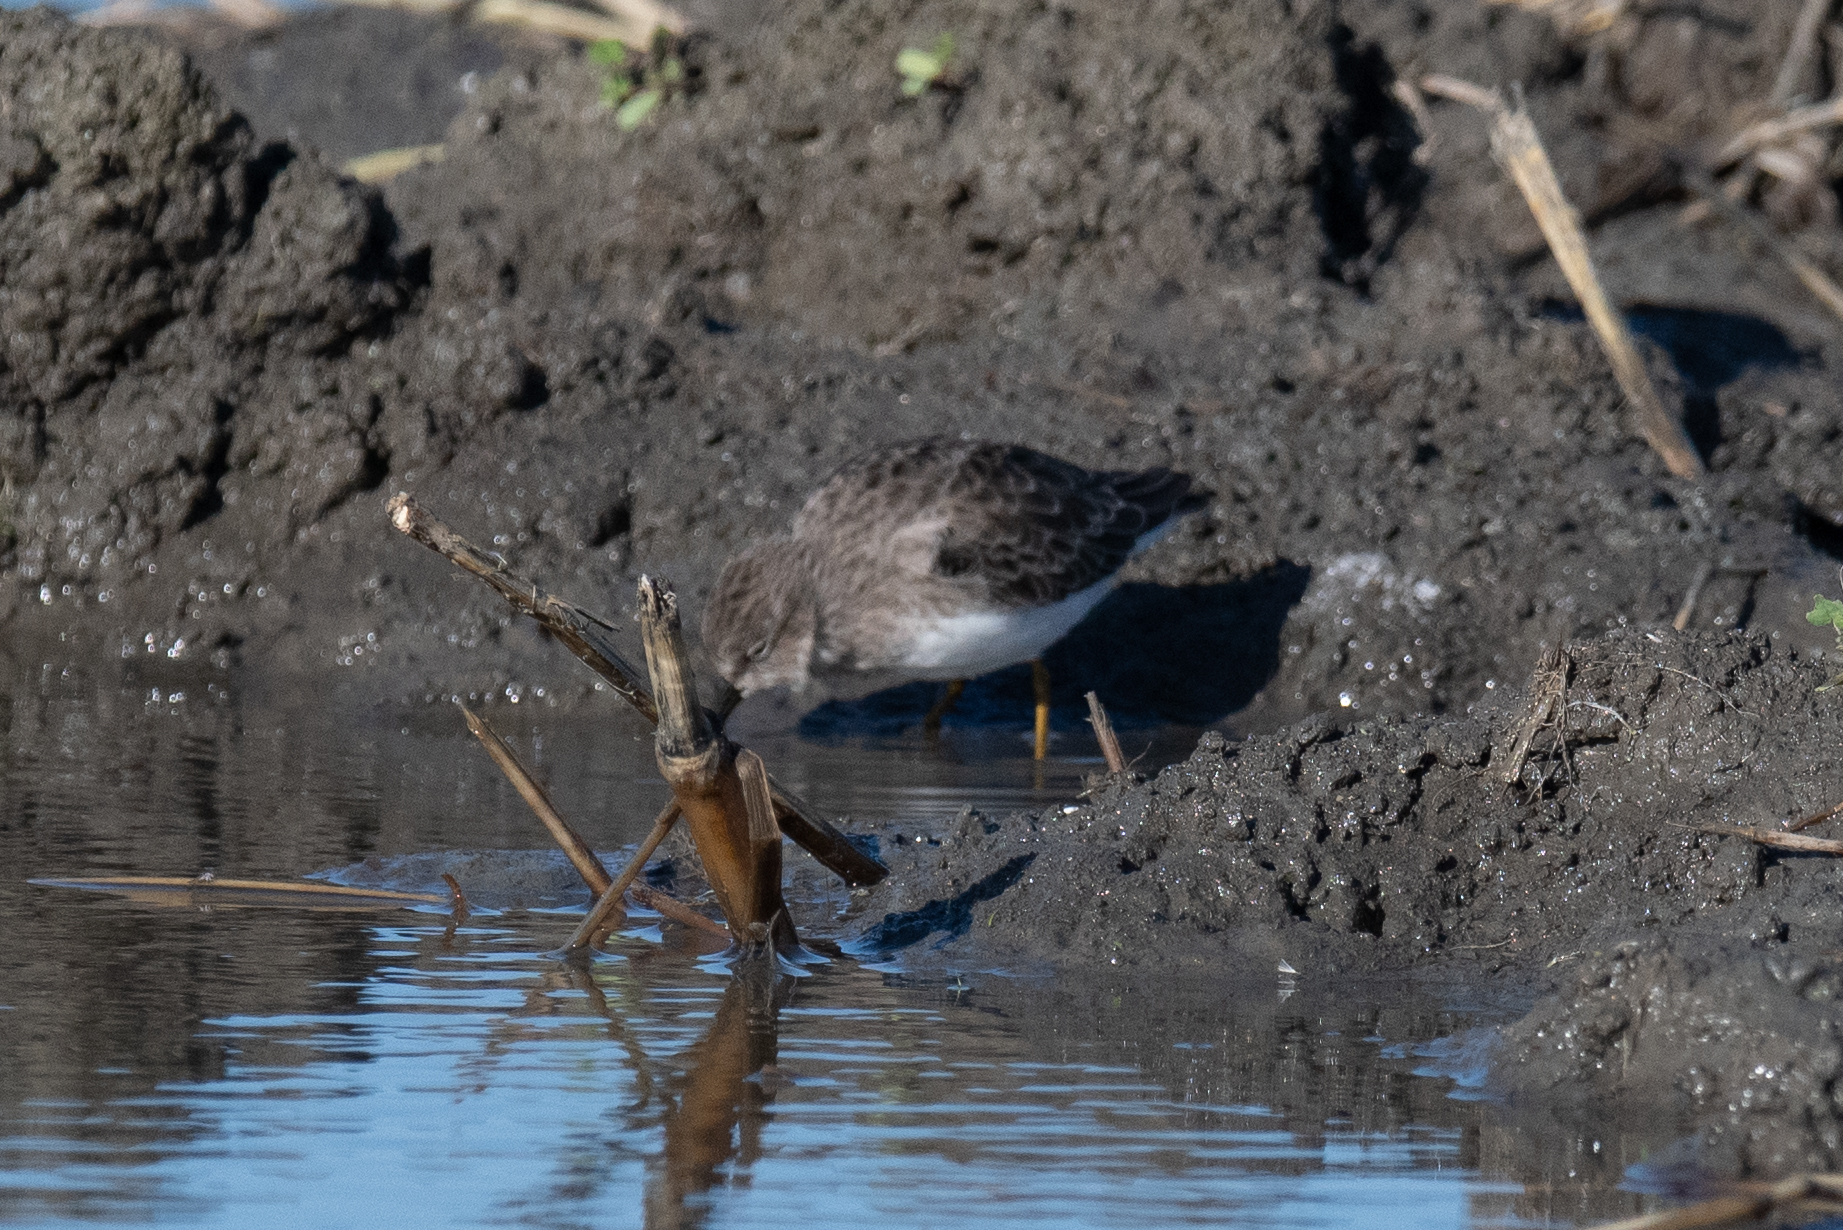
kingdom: Animalia
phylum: Chordata
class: Aves
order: Charadriiformes
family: Scolopacidae
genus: Calidris
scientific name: Calidris minutilla
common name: Least sandpiper
